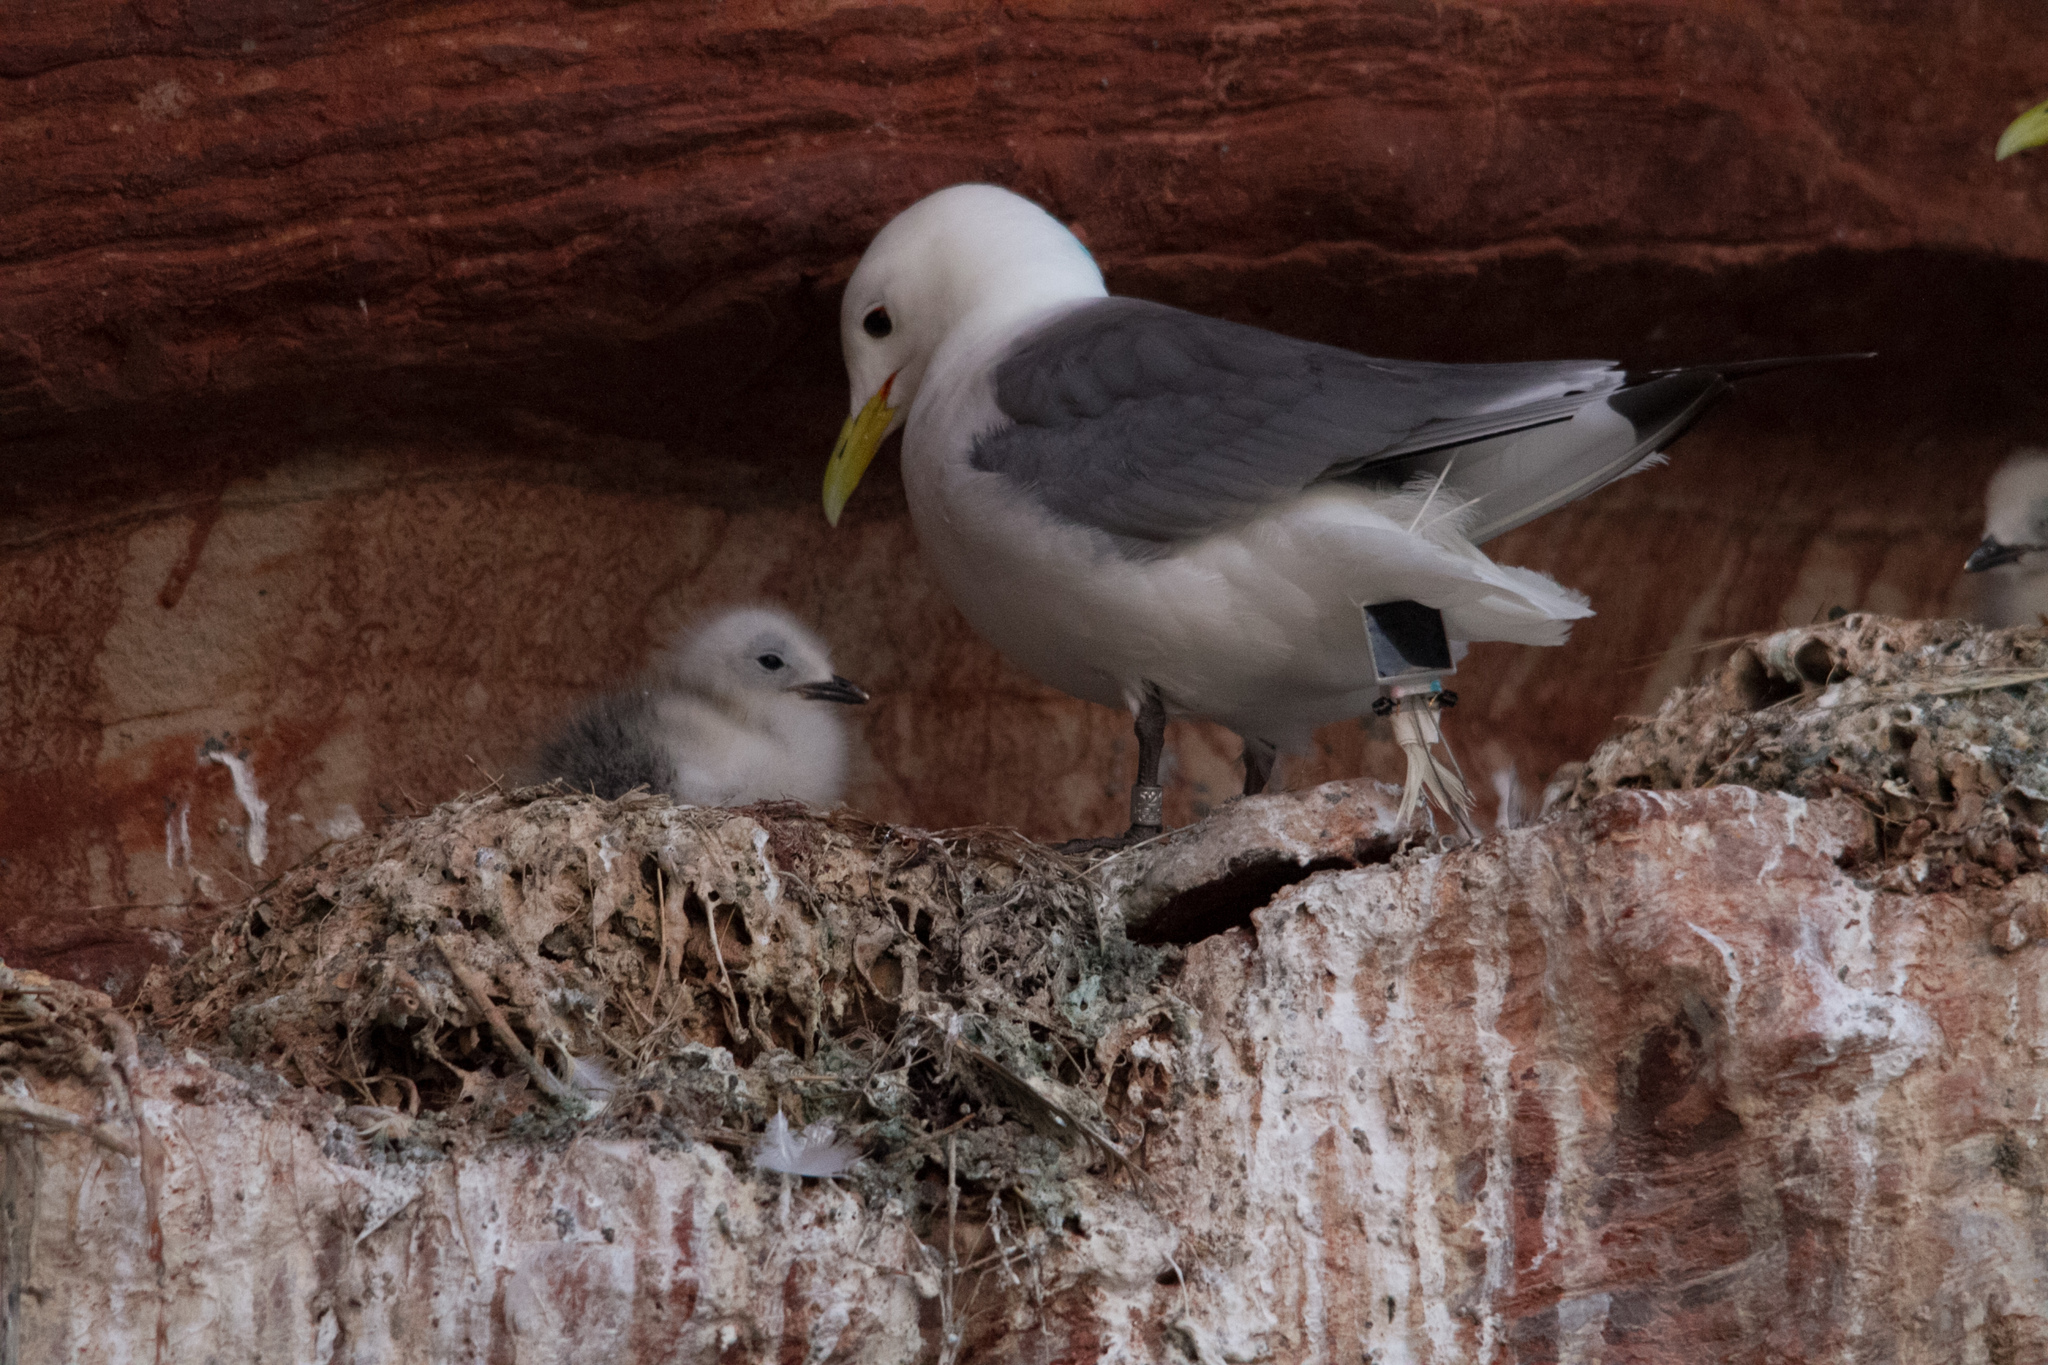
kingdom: Animalia
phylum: Chordata
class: Aves
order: Charadriiformes
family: Laridae
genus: Rissa
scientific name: Rissa tridactyla
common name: Black-legged kittiwake
